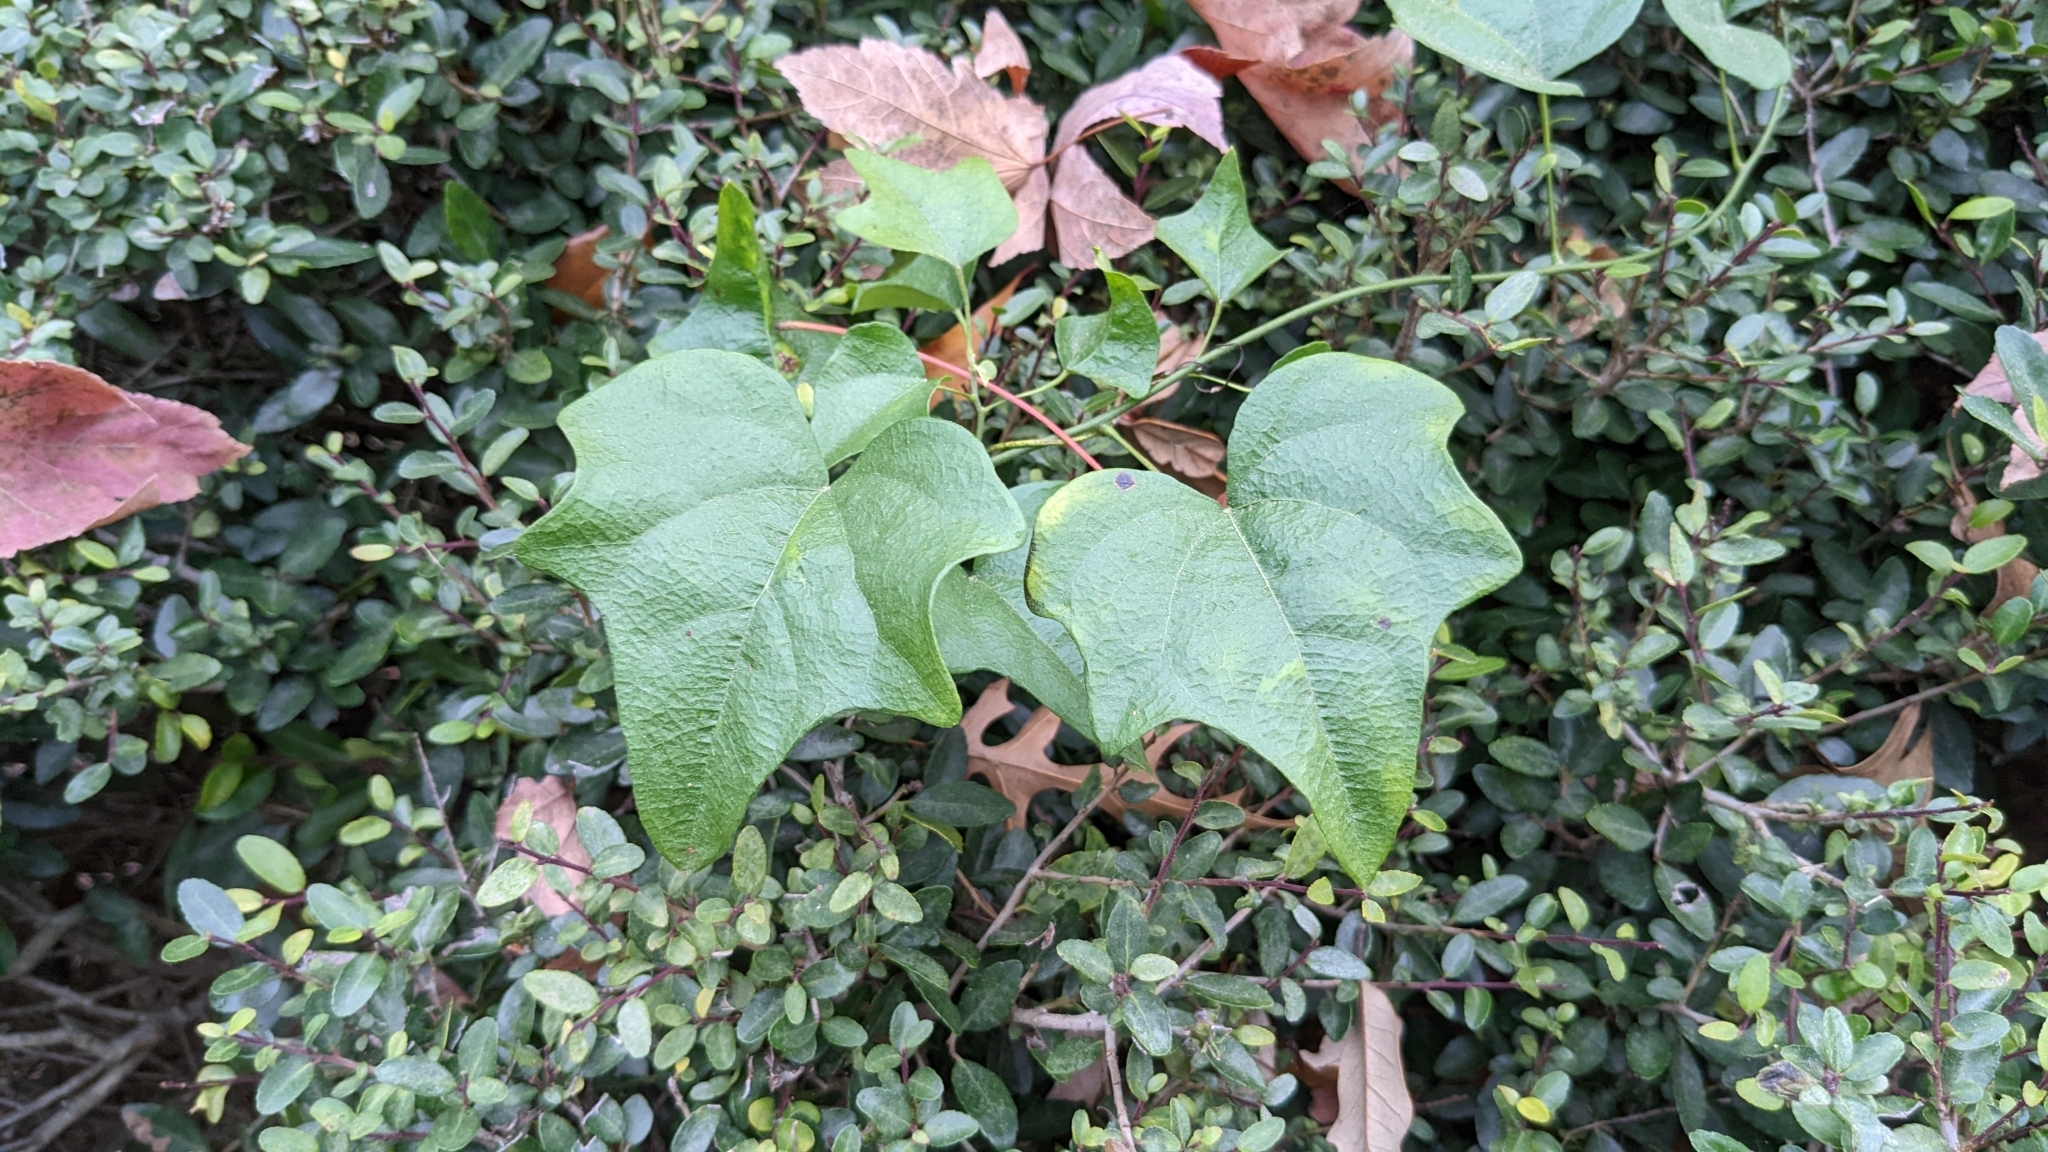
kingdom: Plantae
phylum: Tracheophyta
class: Magnoliopsida
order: Ranunculales
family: Menispermaceae
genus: Cocculus
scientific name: Cocculus carolinus
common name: Carolina moonseed
